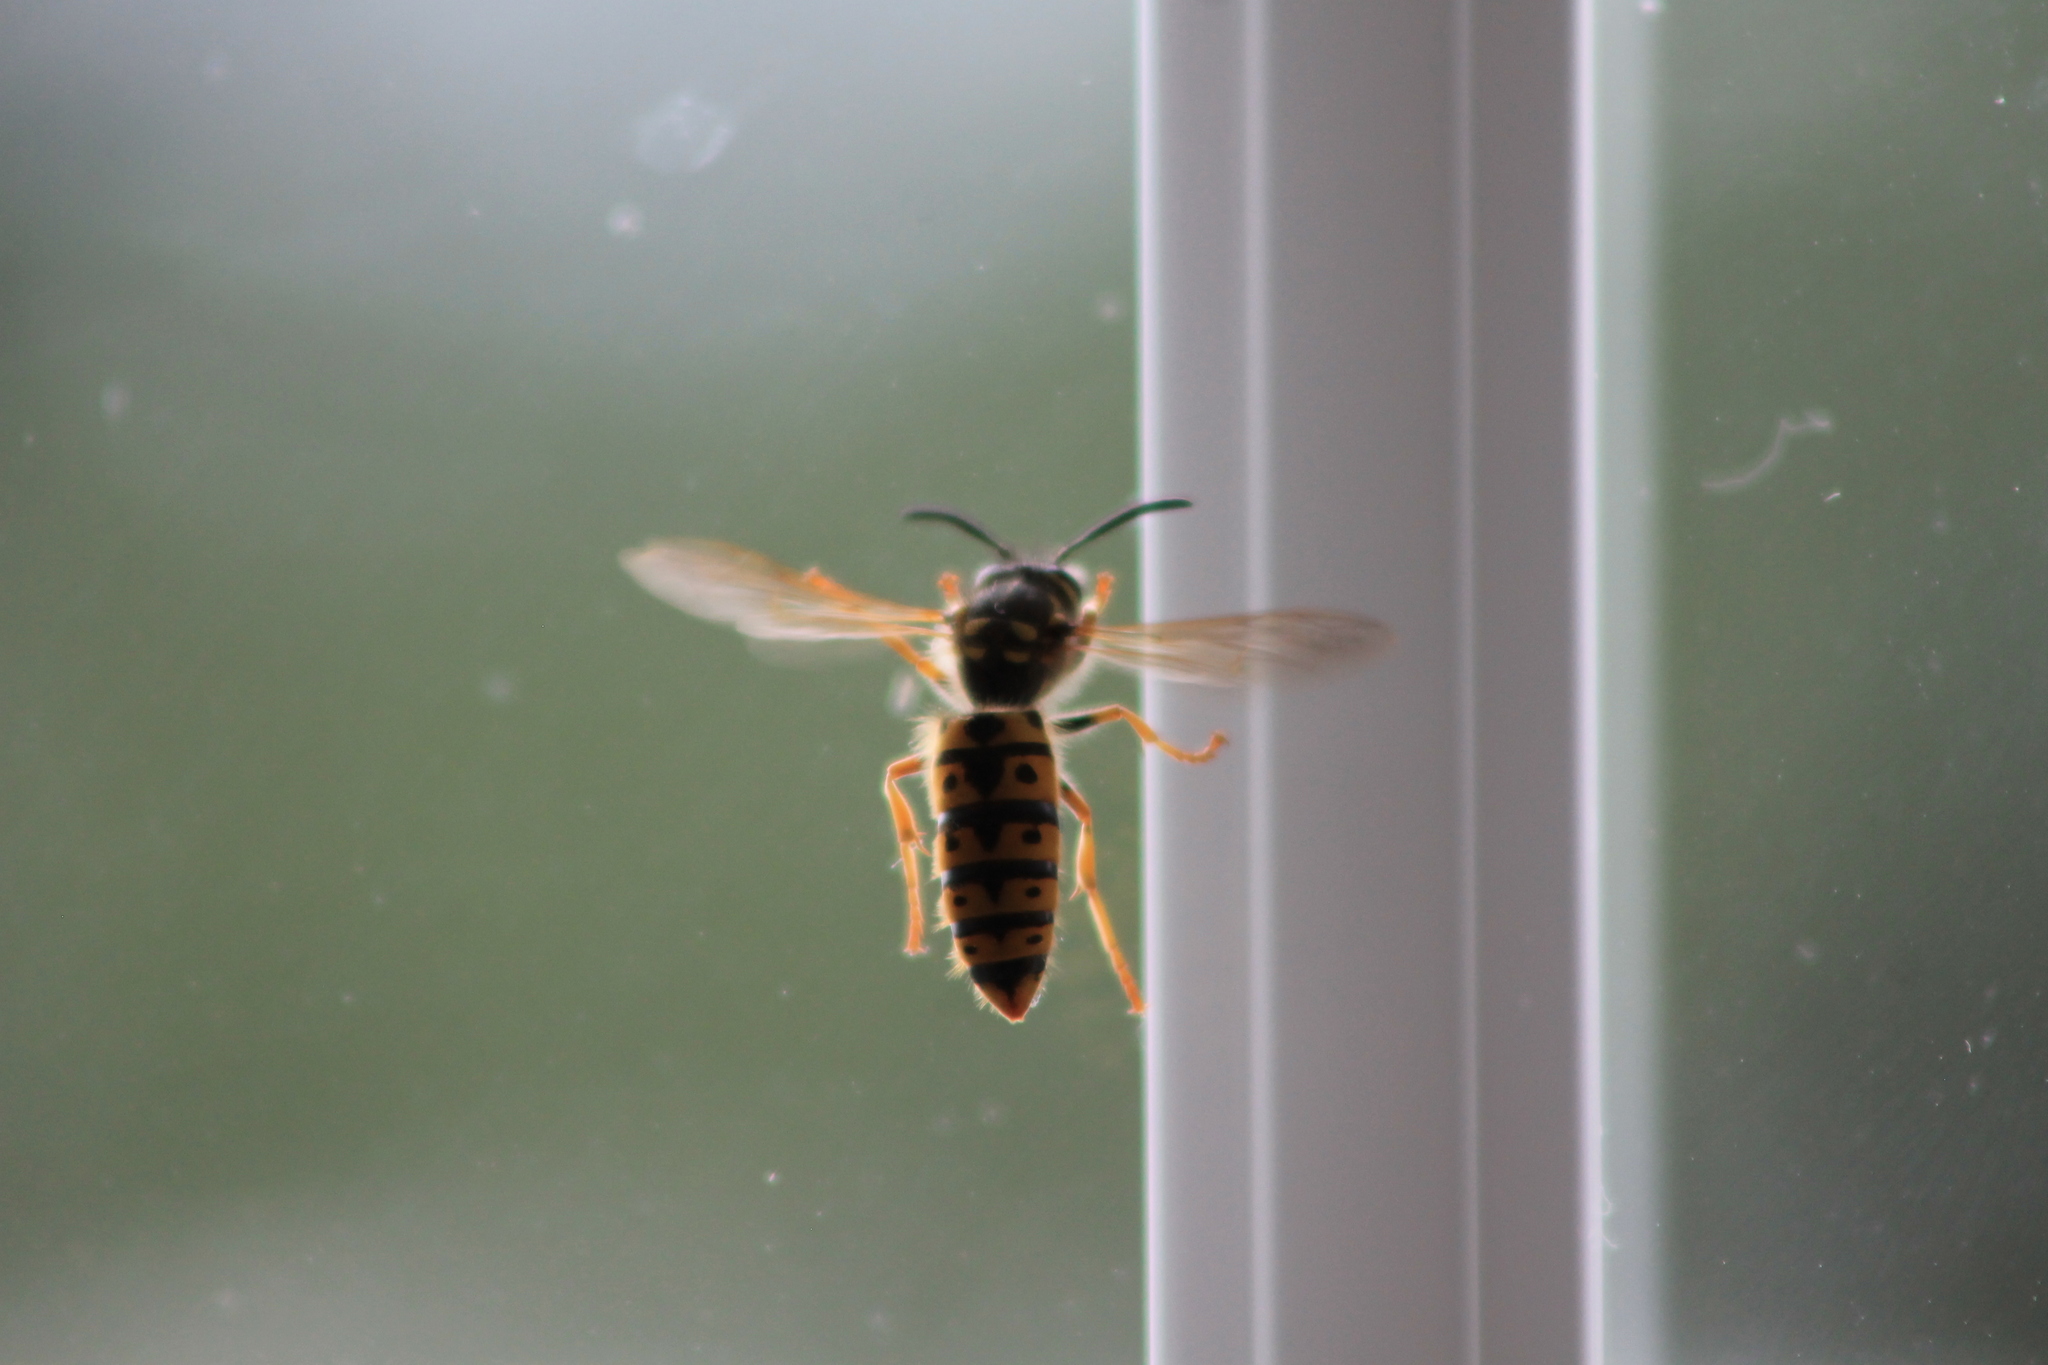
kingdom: Animalia
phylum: Arthropoda
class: Insecta
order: Hymenoptera
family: Vespidae
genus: Vespula
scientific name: Vespula germanica
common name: German wasp
